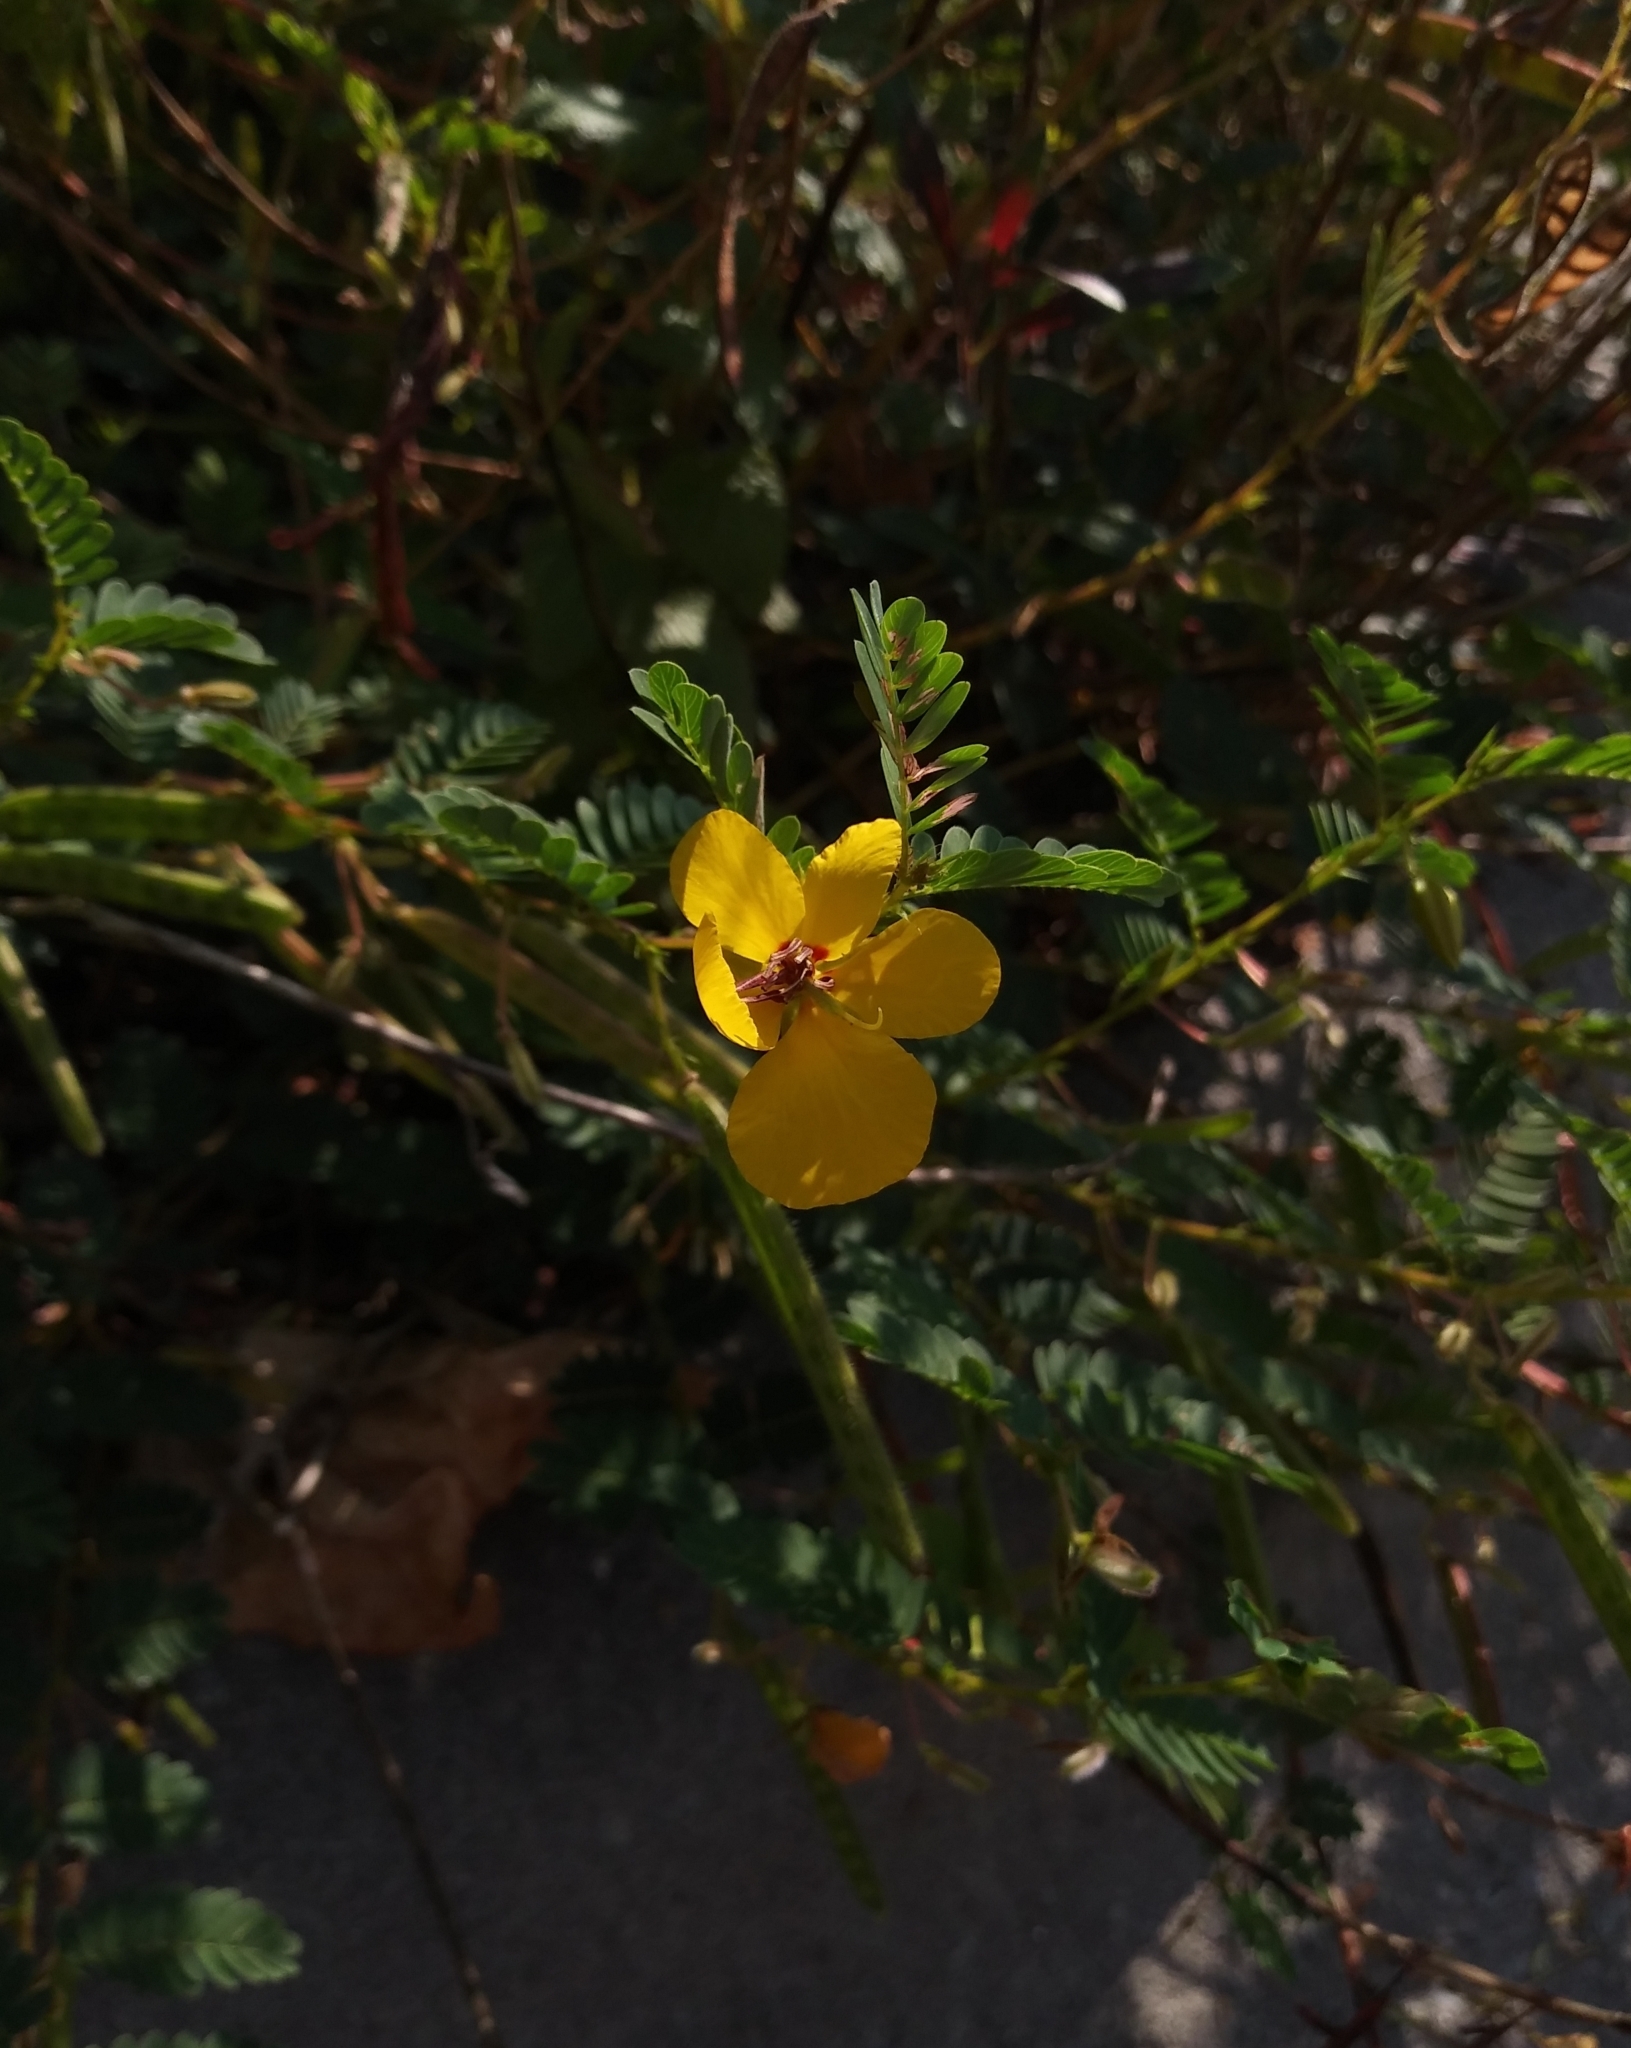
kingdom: Plantae
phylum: Tracheophyta
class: Magnoliopsida
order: Fabales
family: Fabaceae
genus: Chamaecrista
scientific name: Chamaecrista fasciculata
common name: Golden cassia
